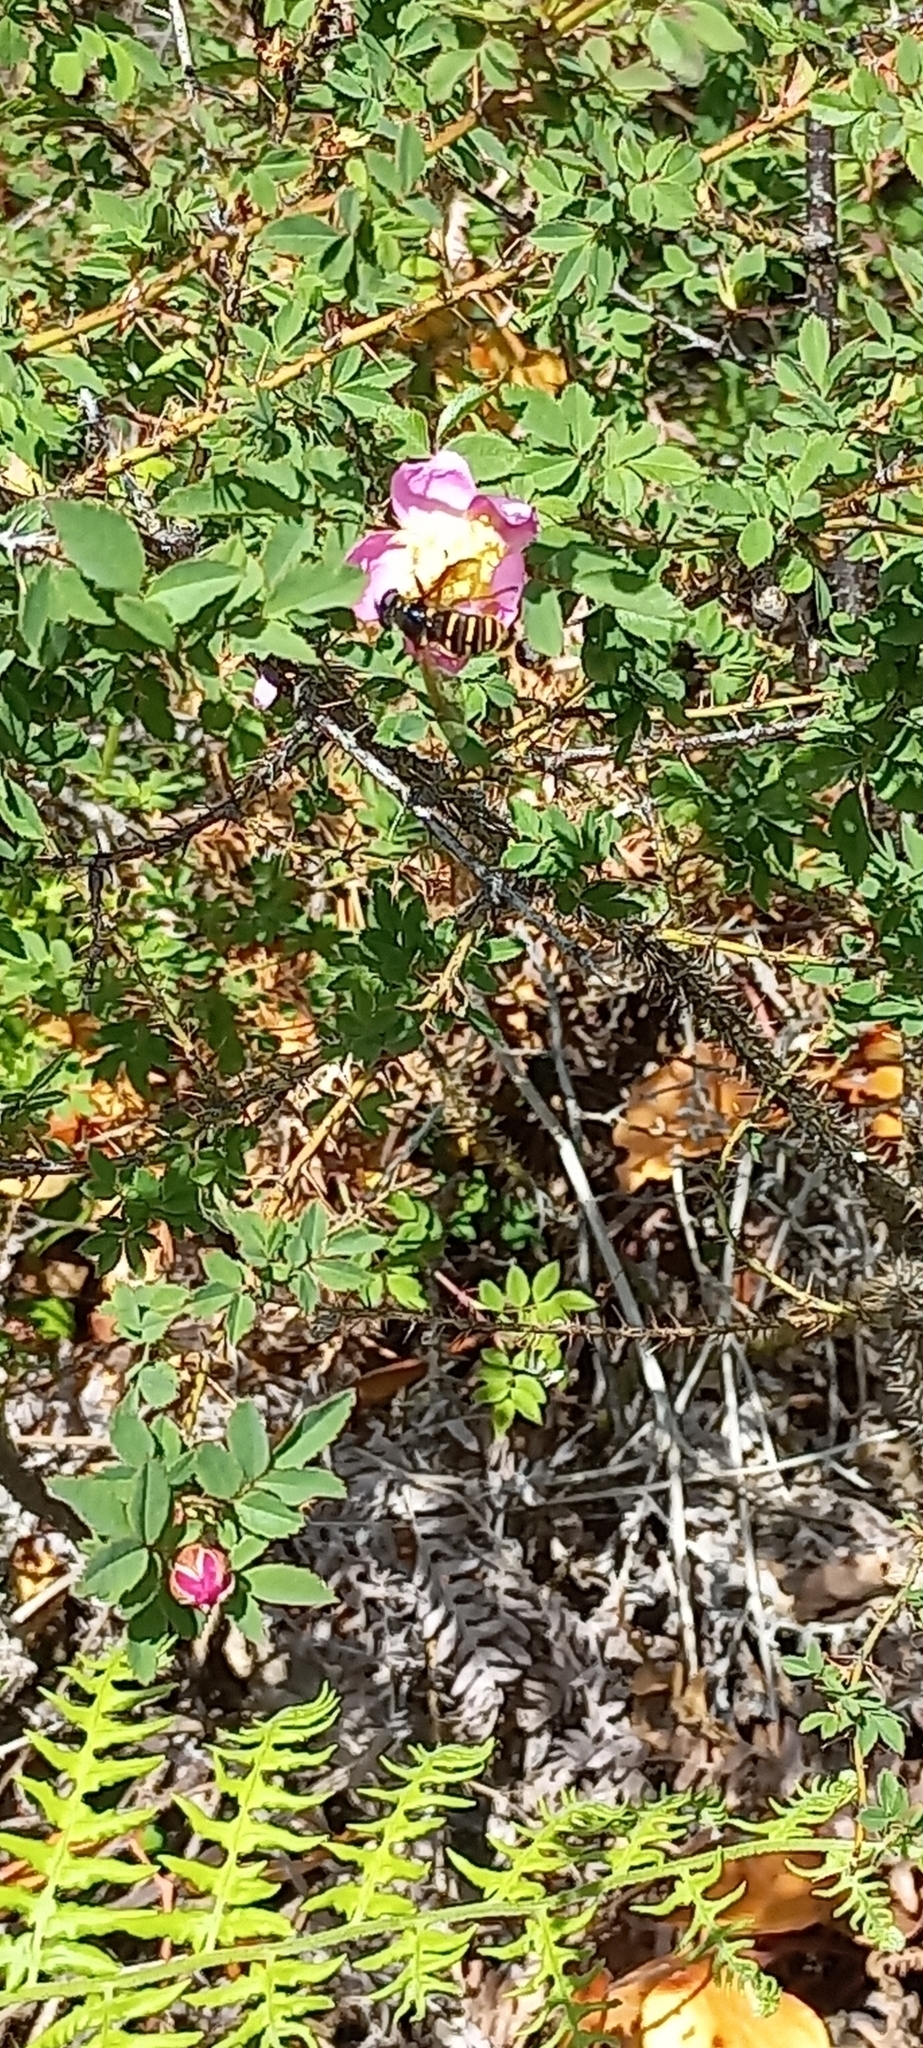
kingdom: Animalia
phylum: Arthropoda
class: Insecta
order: Diptera
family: Syrphidae
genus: Sericomyia
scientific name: Sericomyia chalcopyga
